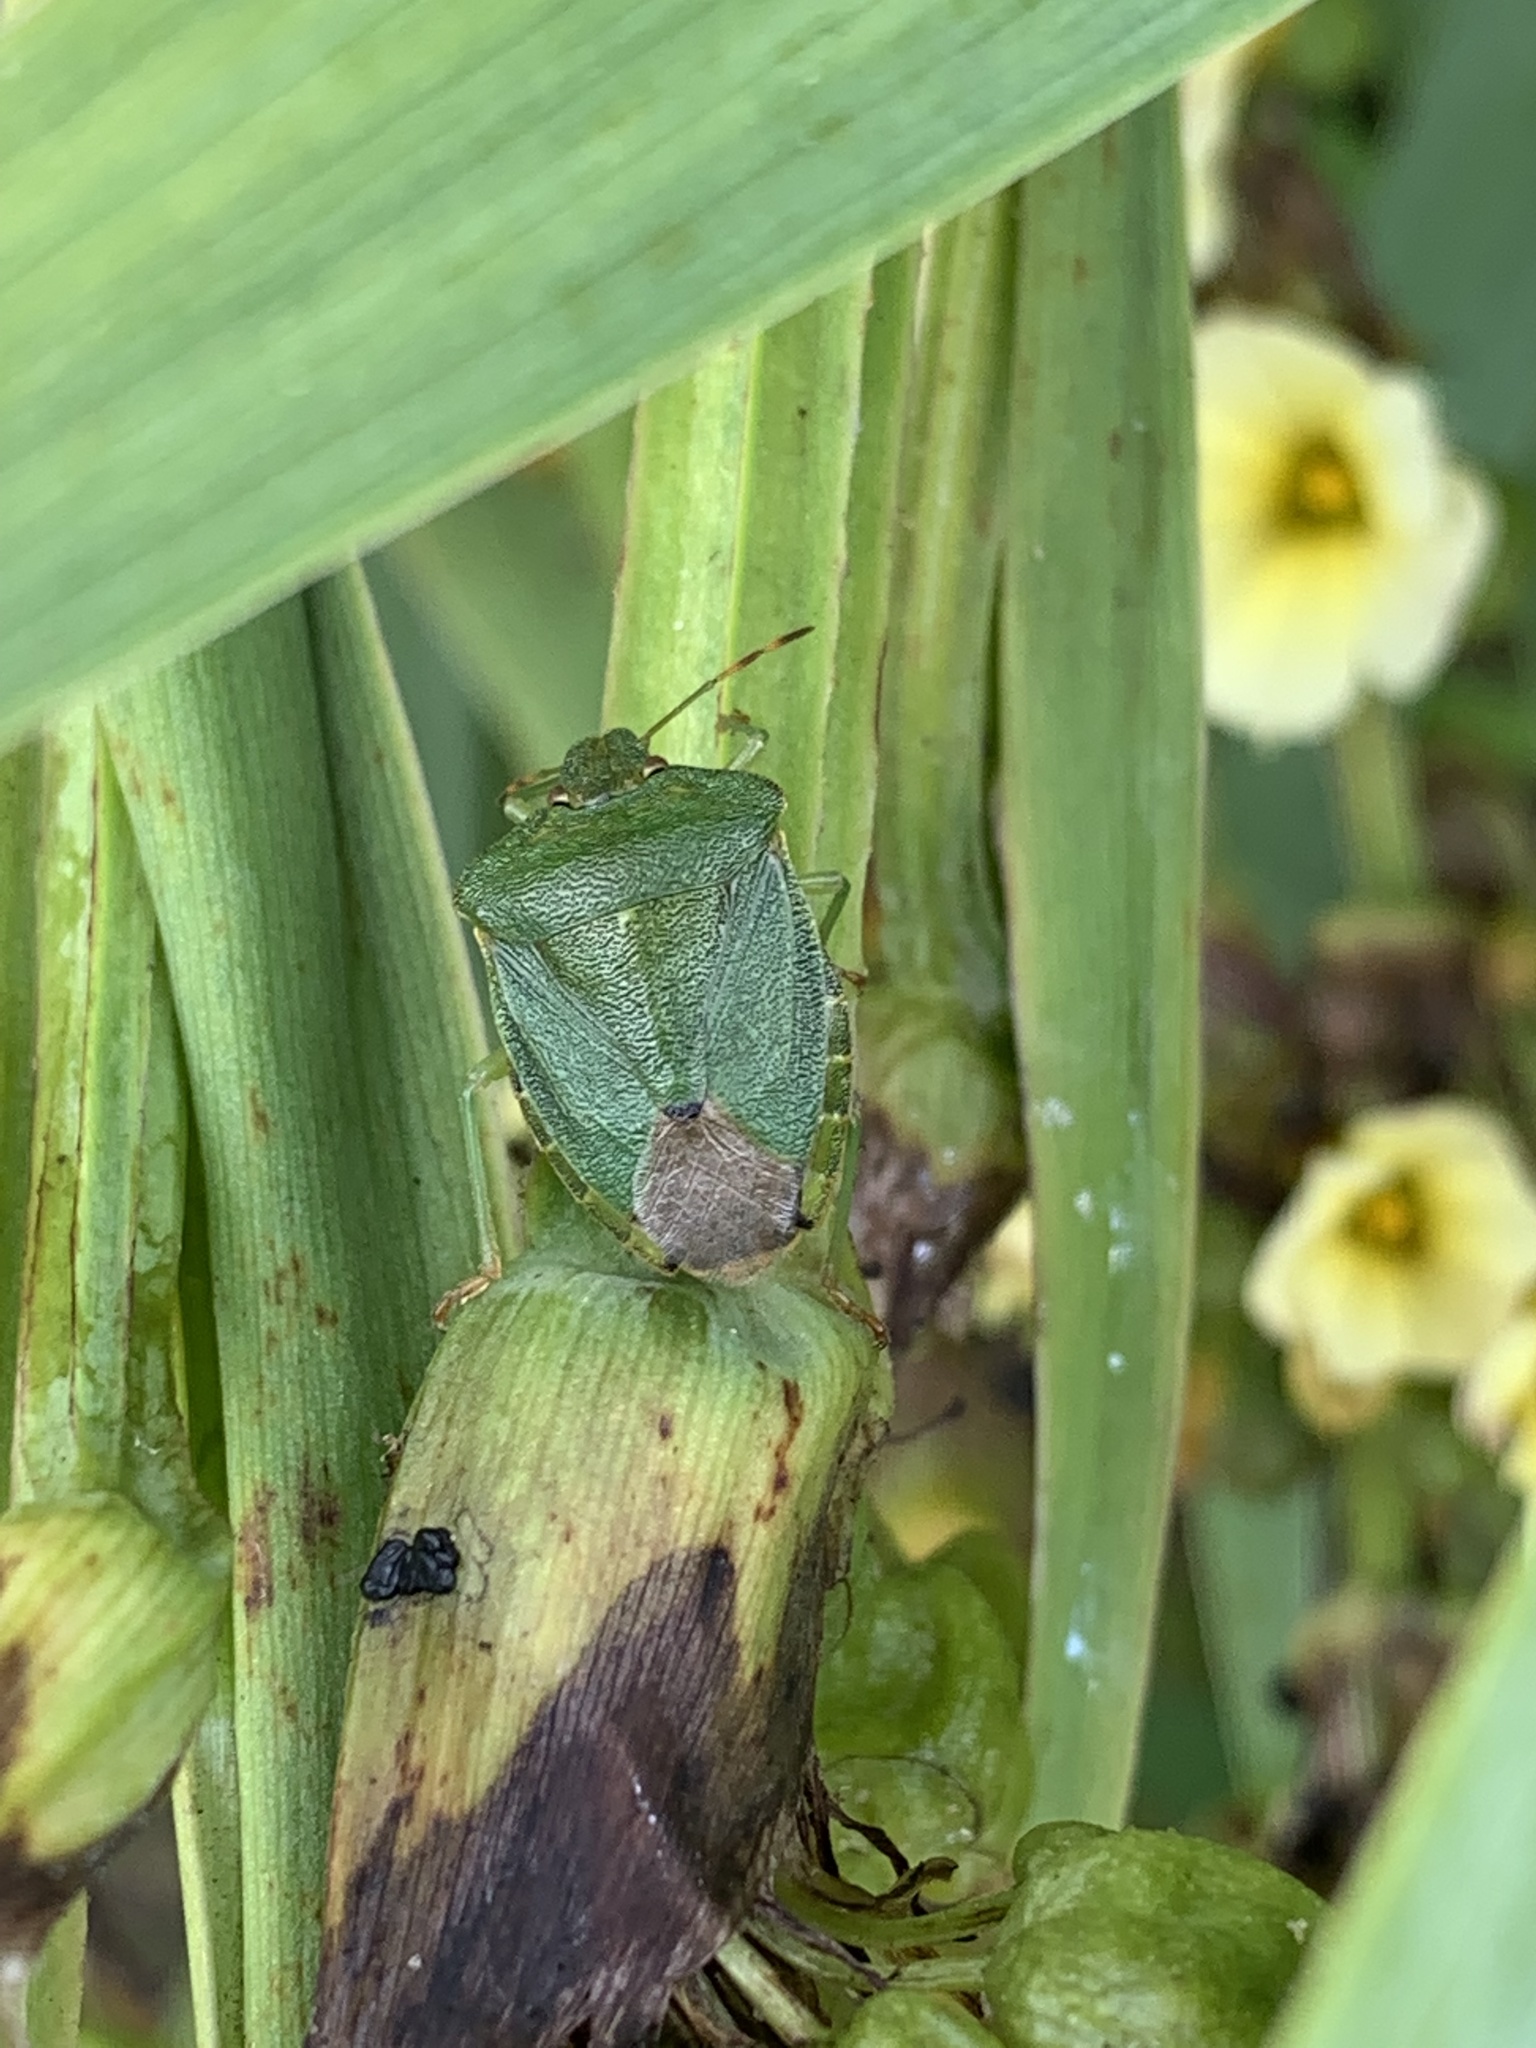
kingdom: Animalia
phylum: Arthropoda
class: Insecta
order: Hemiptera
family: Pentatomidae
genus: Palomena
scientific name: Palomena prasina
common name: Green shieldbug
